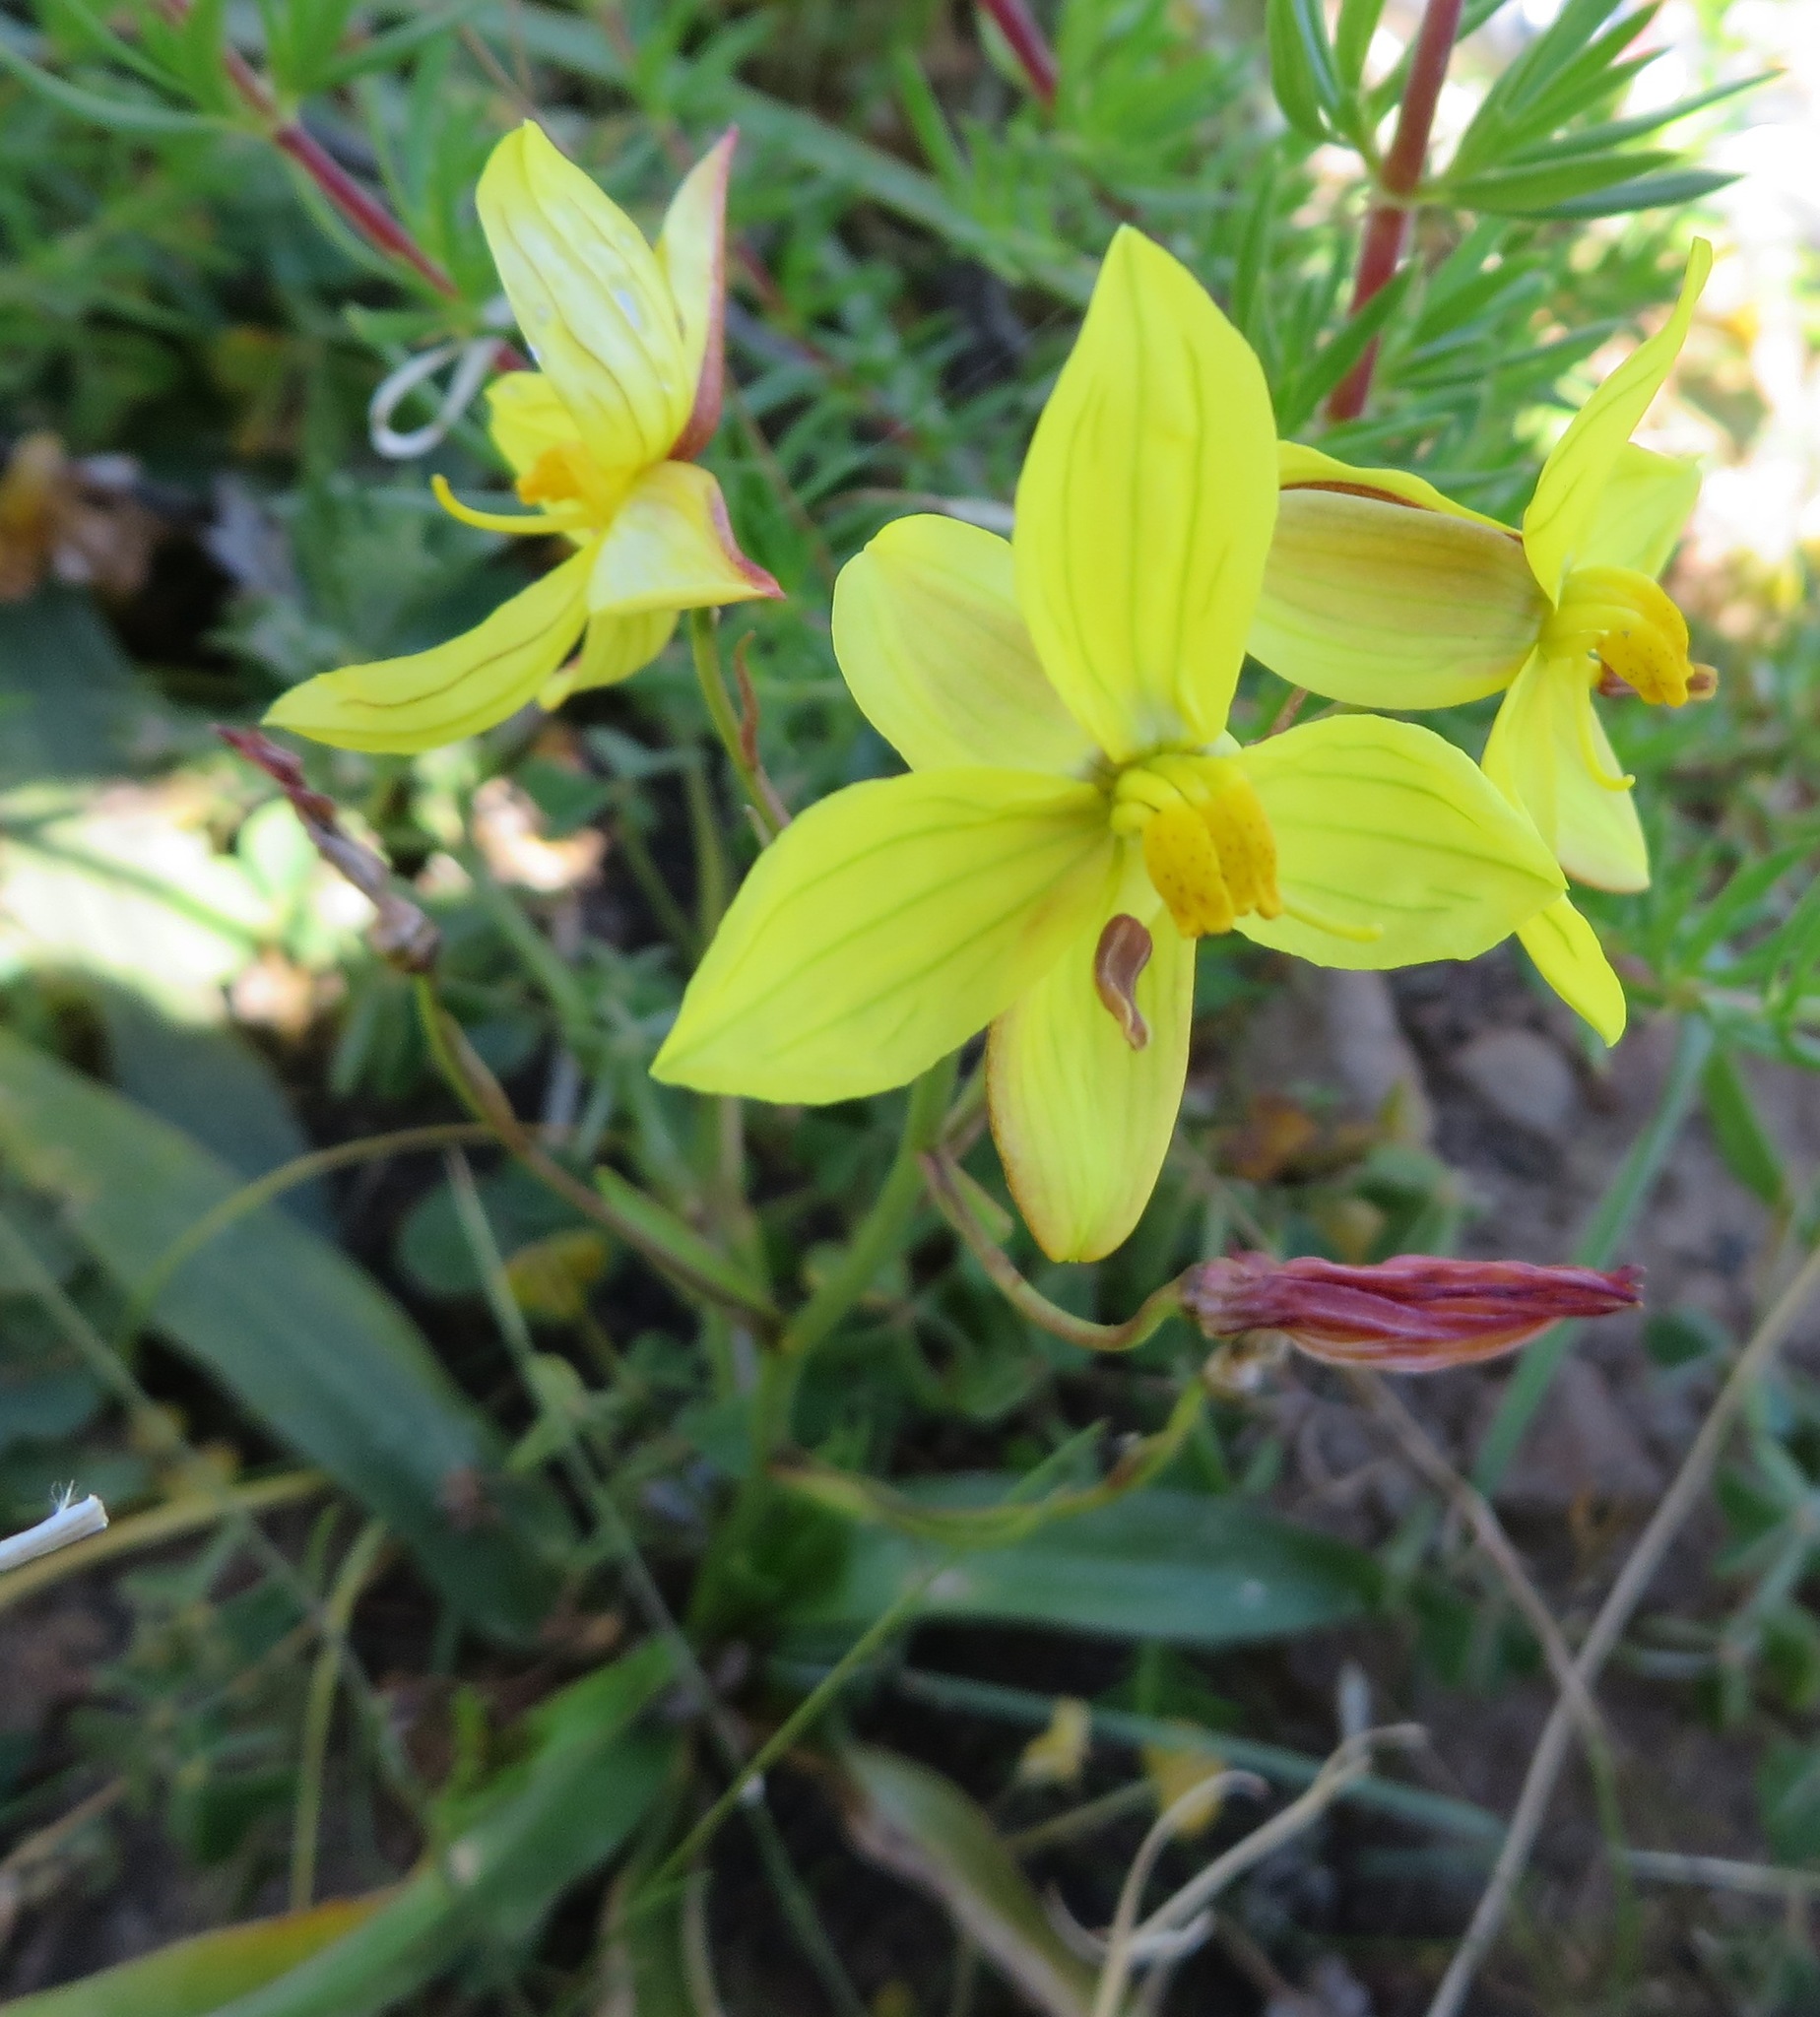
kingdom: Plantae
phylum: Tracheophyta
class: Liliopsida
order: Asparagales
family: Tecophilaeaceae
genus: Cyanella
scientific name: Cyanella lutea
